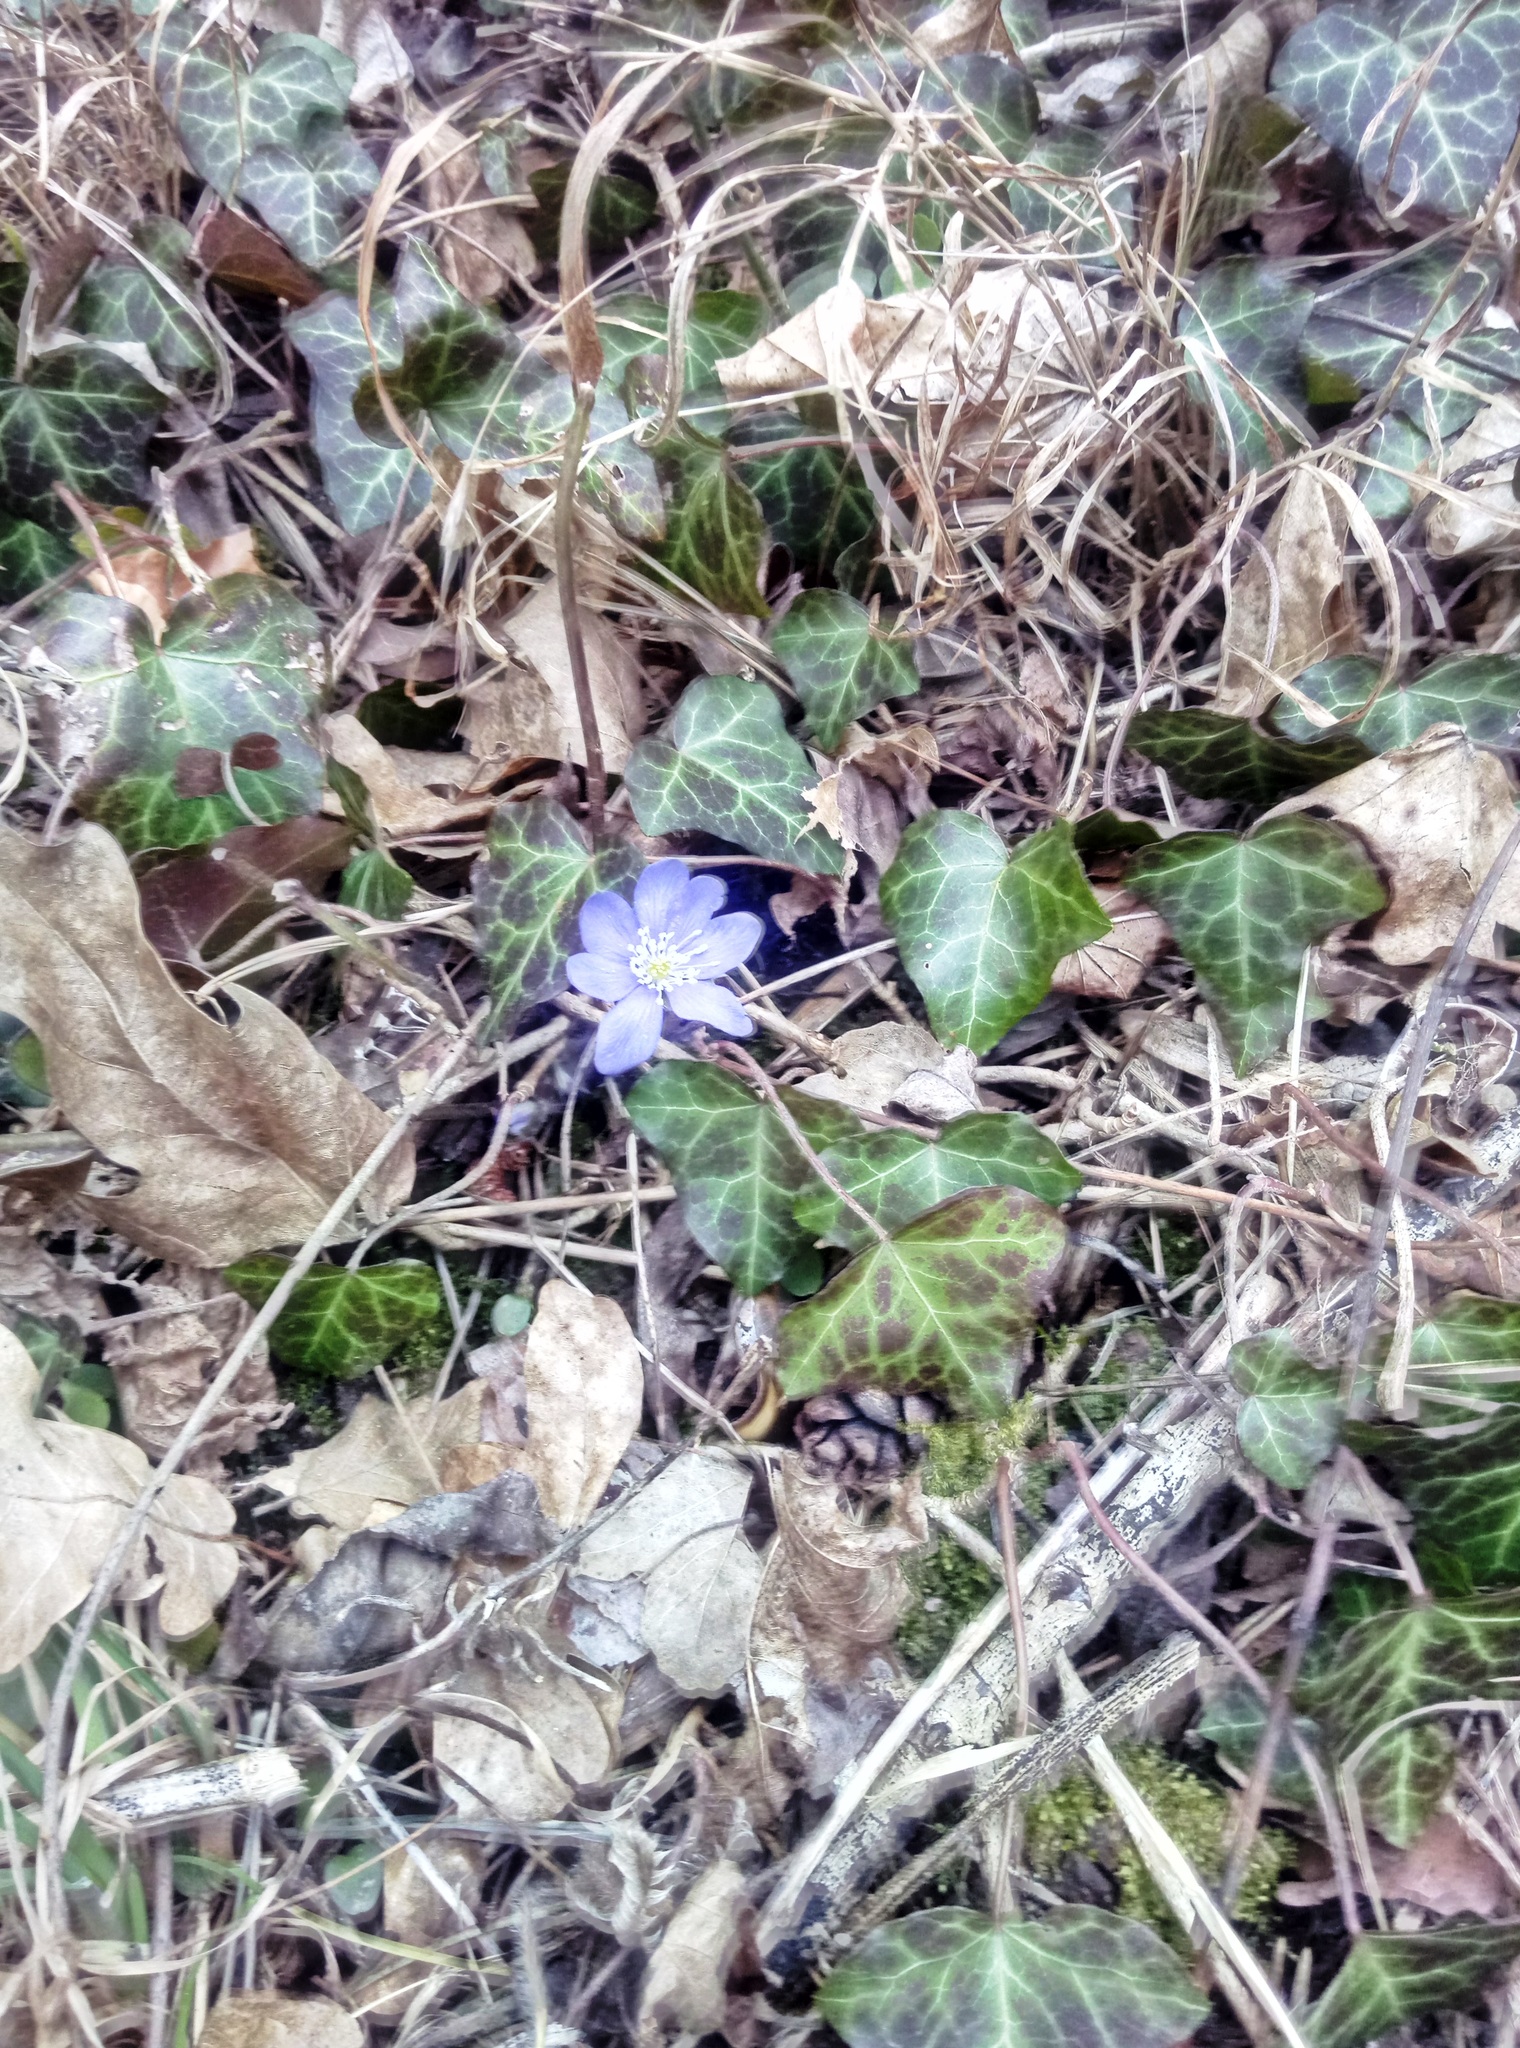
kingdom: Plantae
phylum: Tracheophyta
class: Magnoliopsida
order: Ranunculales
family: Ranunculaceae
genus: Hepatica
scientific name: Hepatica nobilis
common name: Liverleaf
